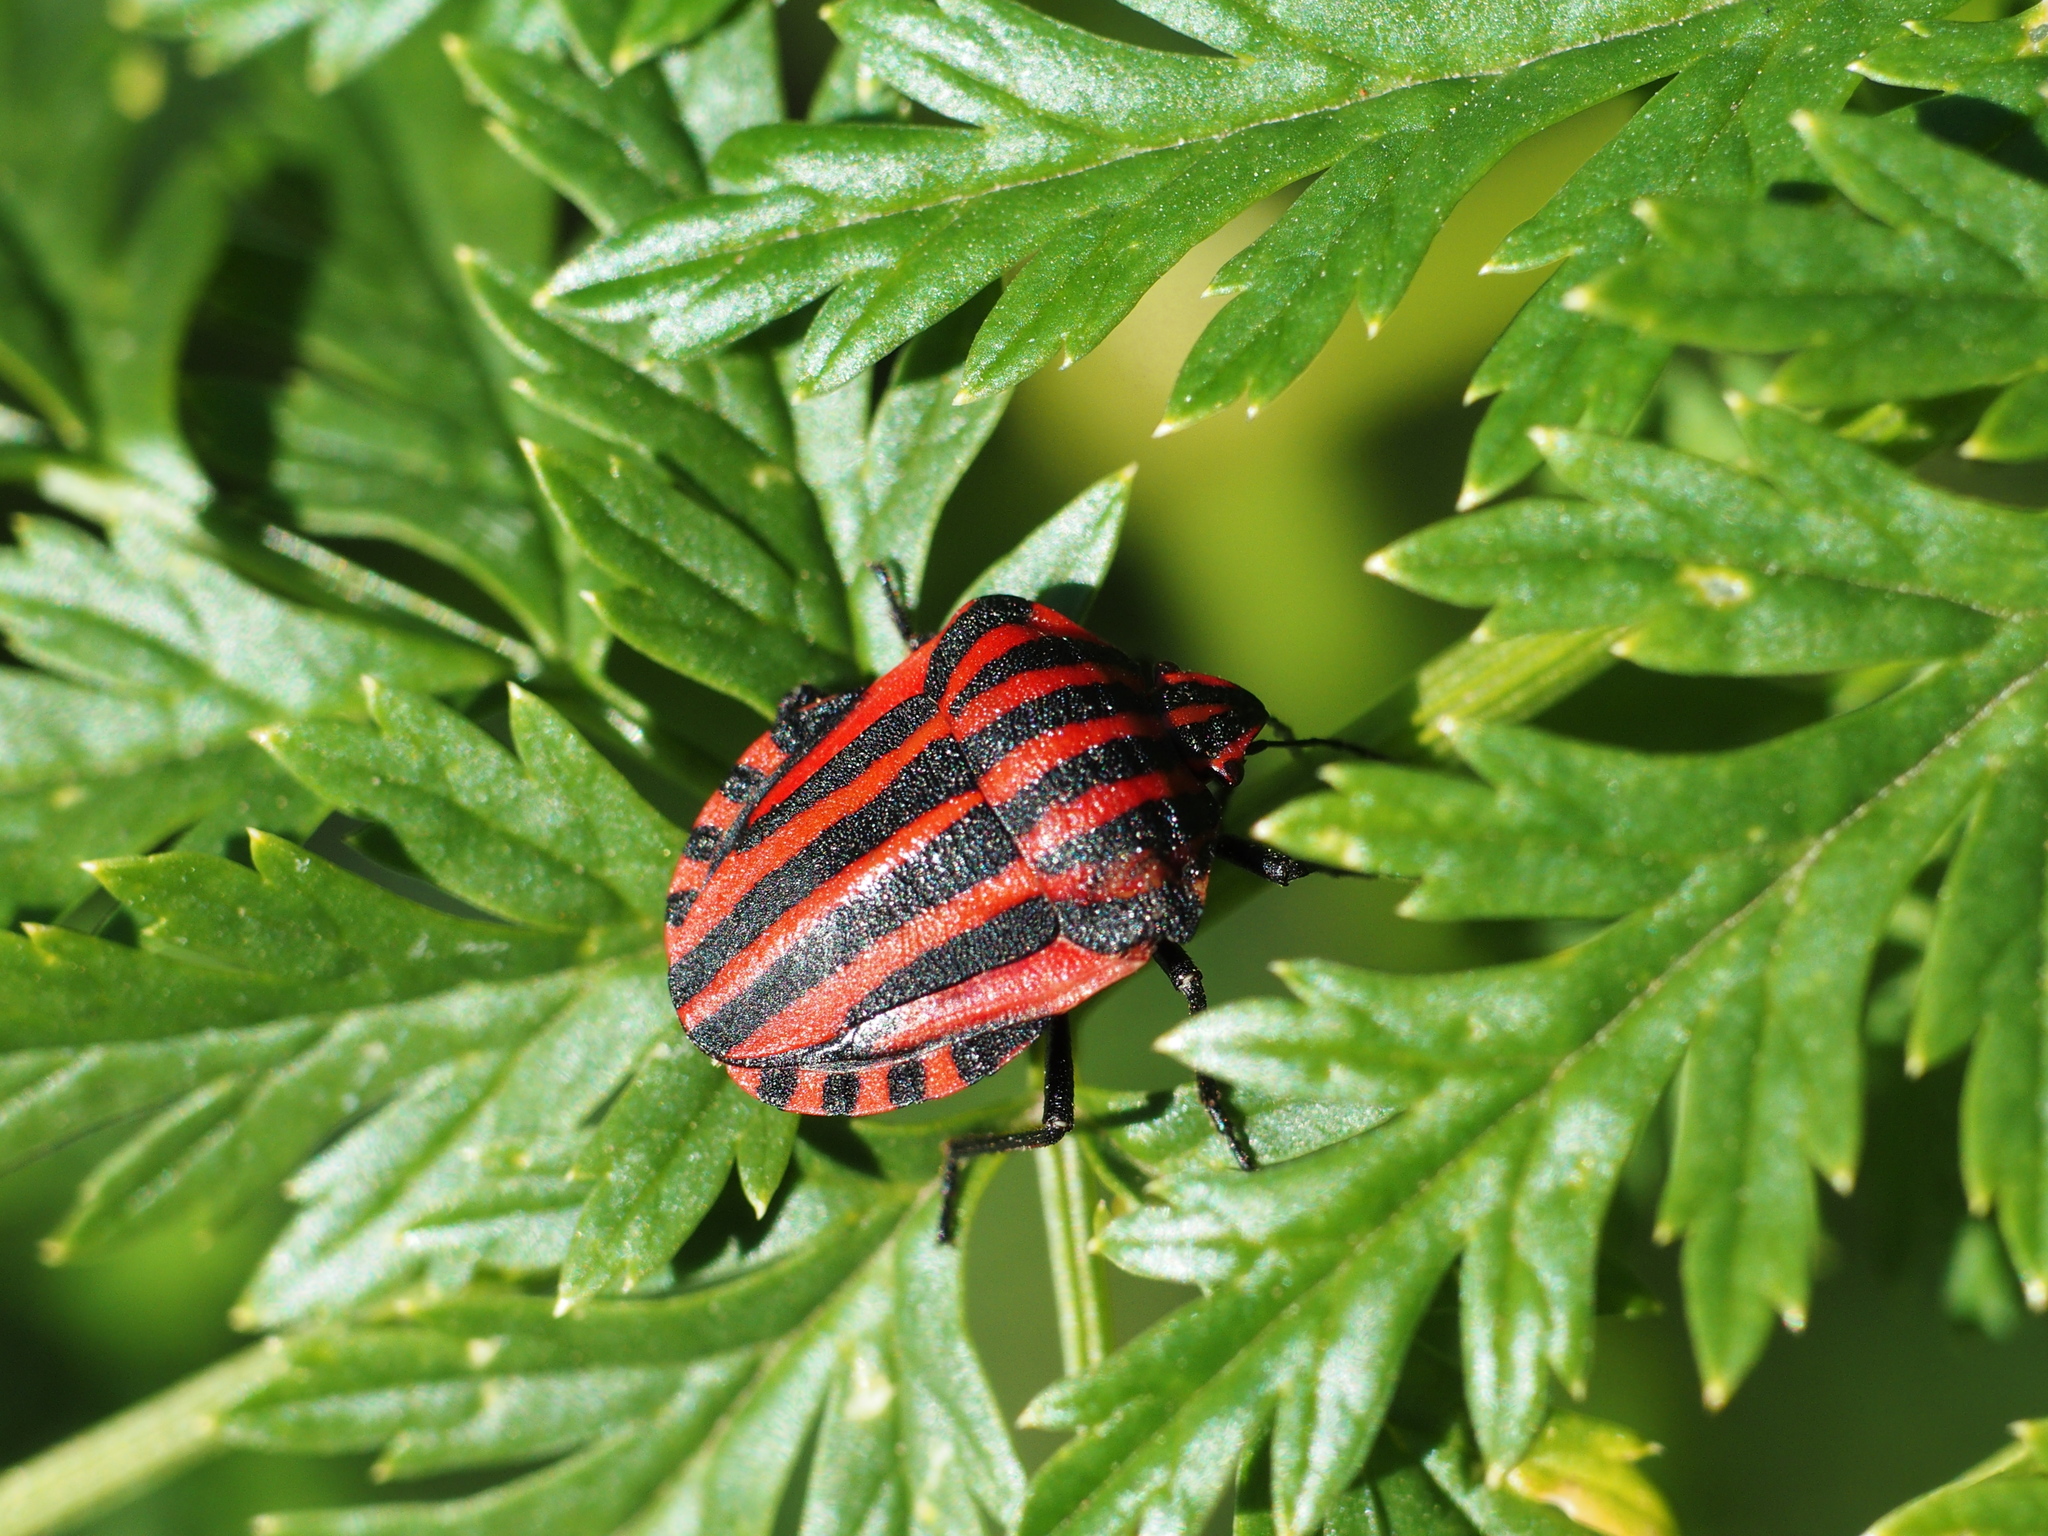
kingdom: Animalia
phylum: Arthropoda
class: Insecta
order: Hemiptera
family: Pentatomidae
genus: Graphosoma
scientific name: Graphosoma italicum
